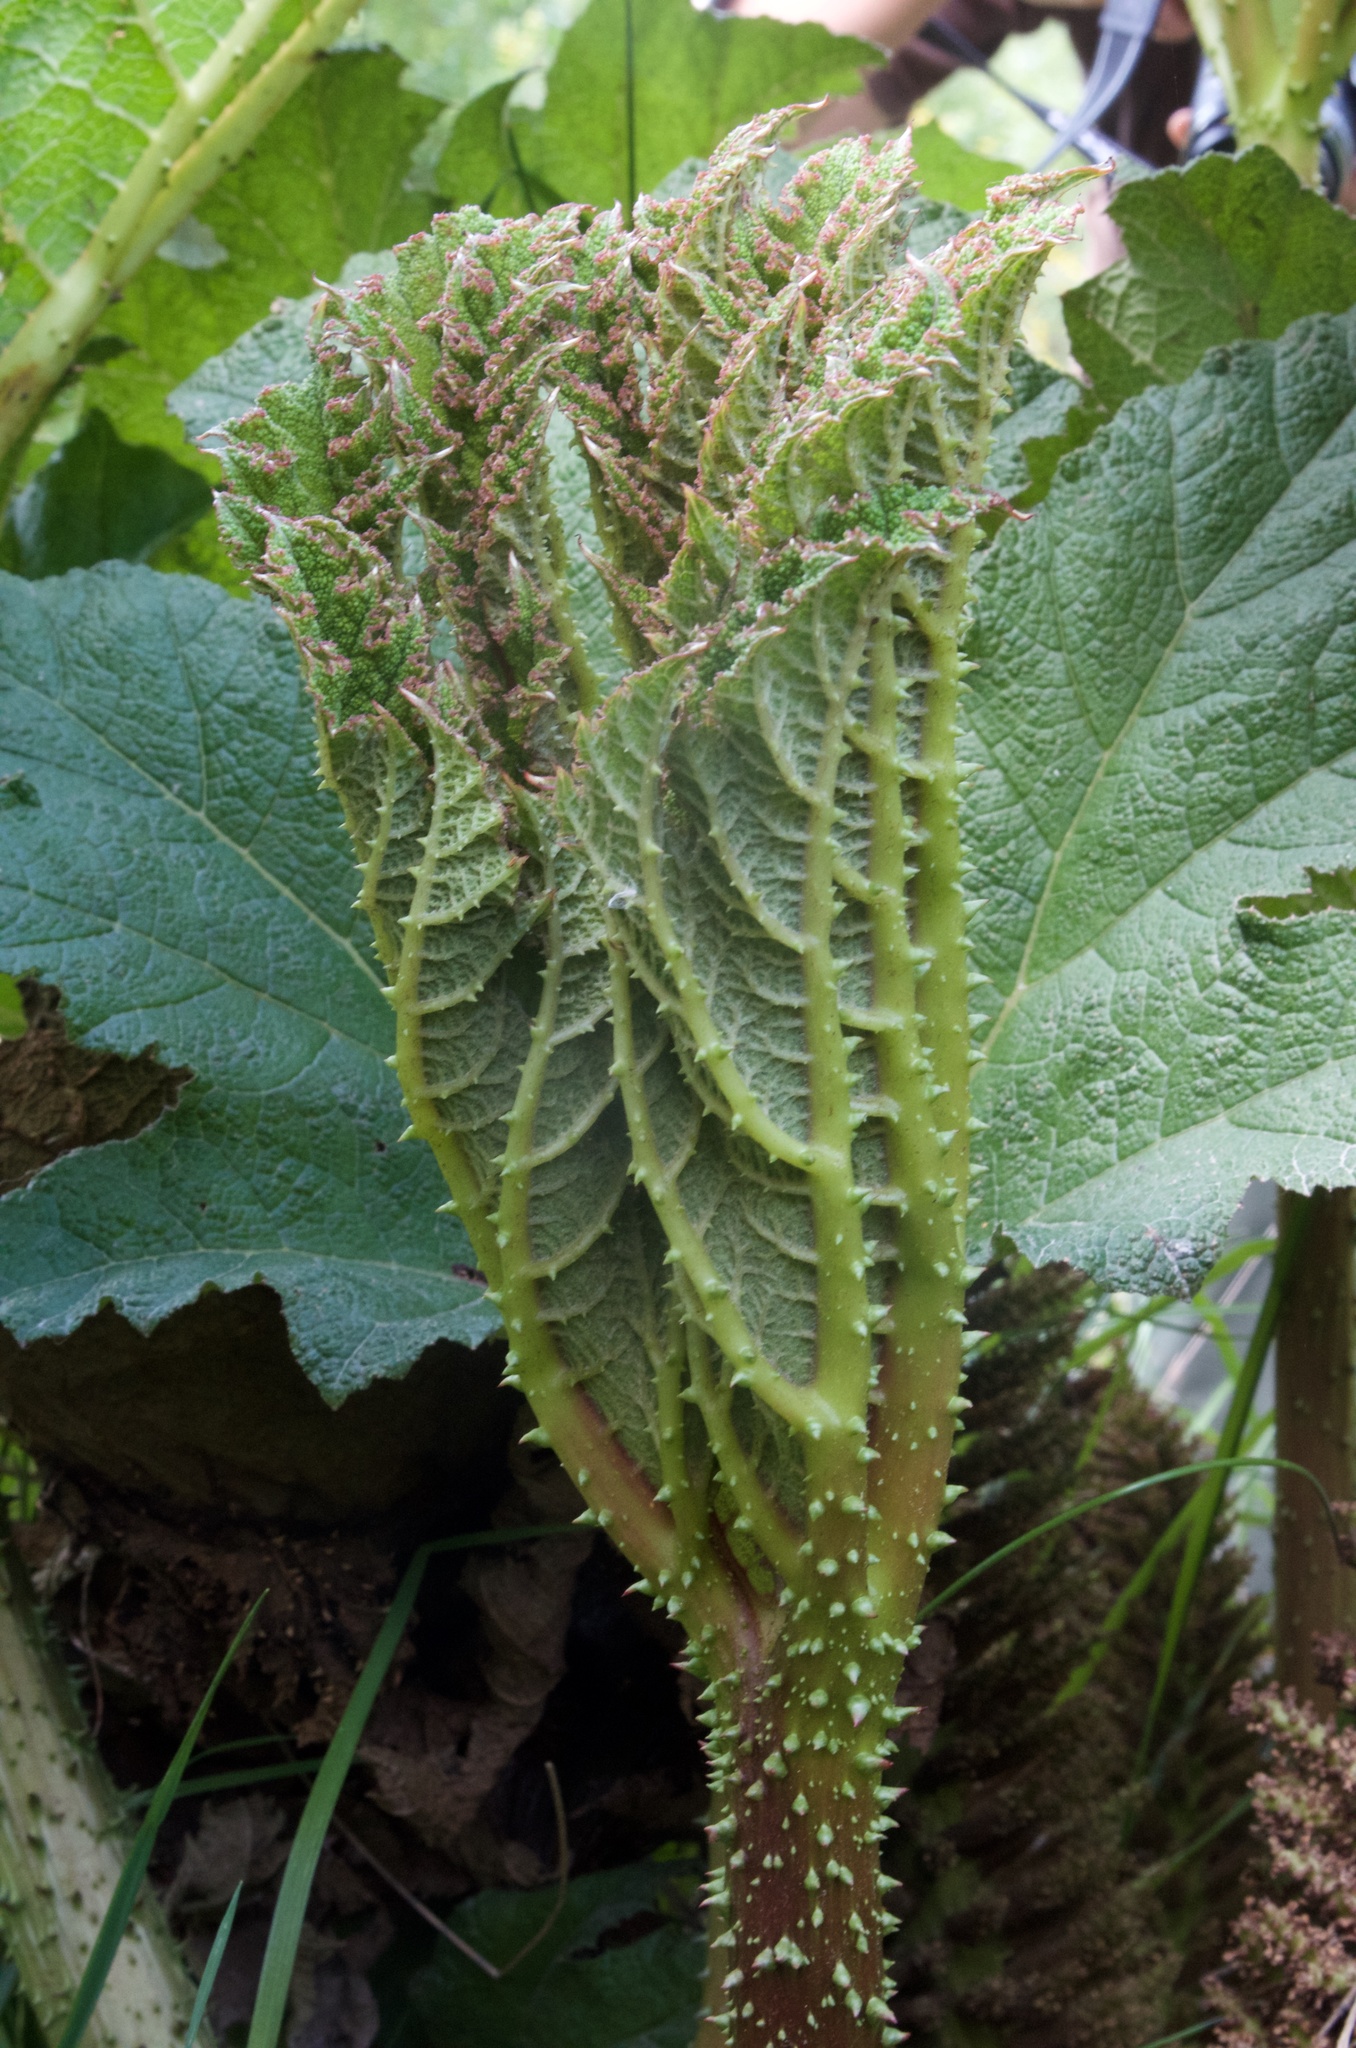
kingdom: Plantae
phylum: Tracheophyta
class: Magnoliopsida
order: Gunnerales
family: Gunneraceae
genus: Gunnera
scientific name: Gunnera tinctoria
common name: Giant-rhubarb
